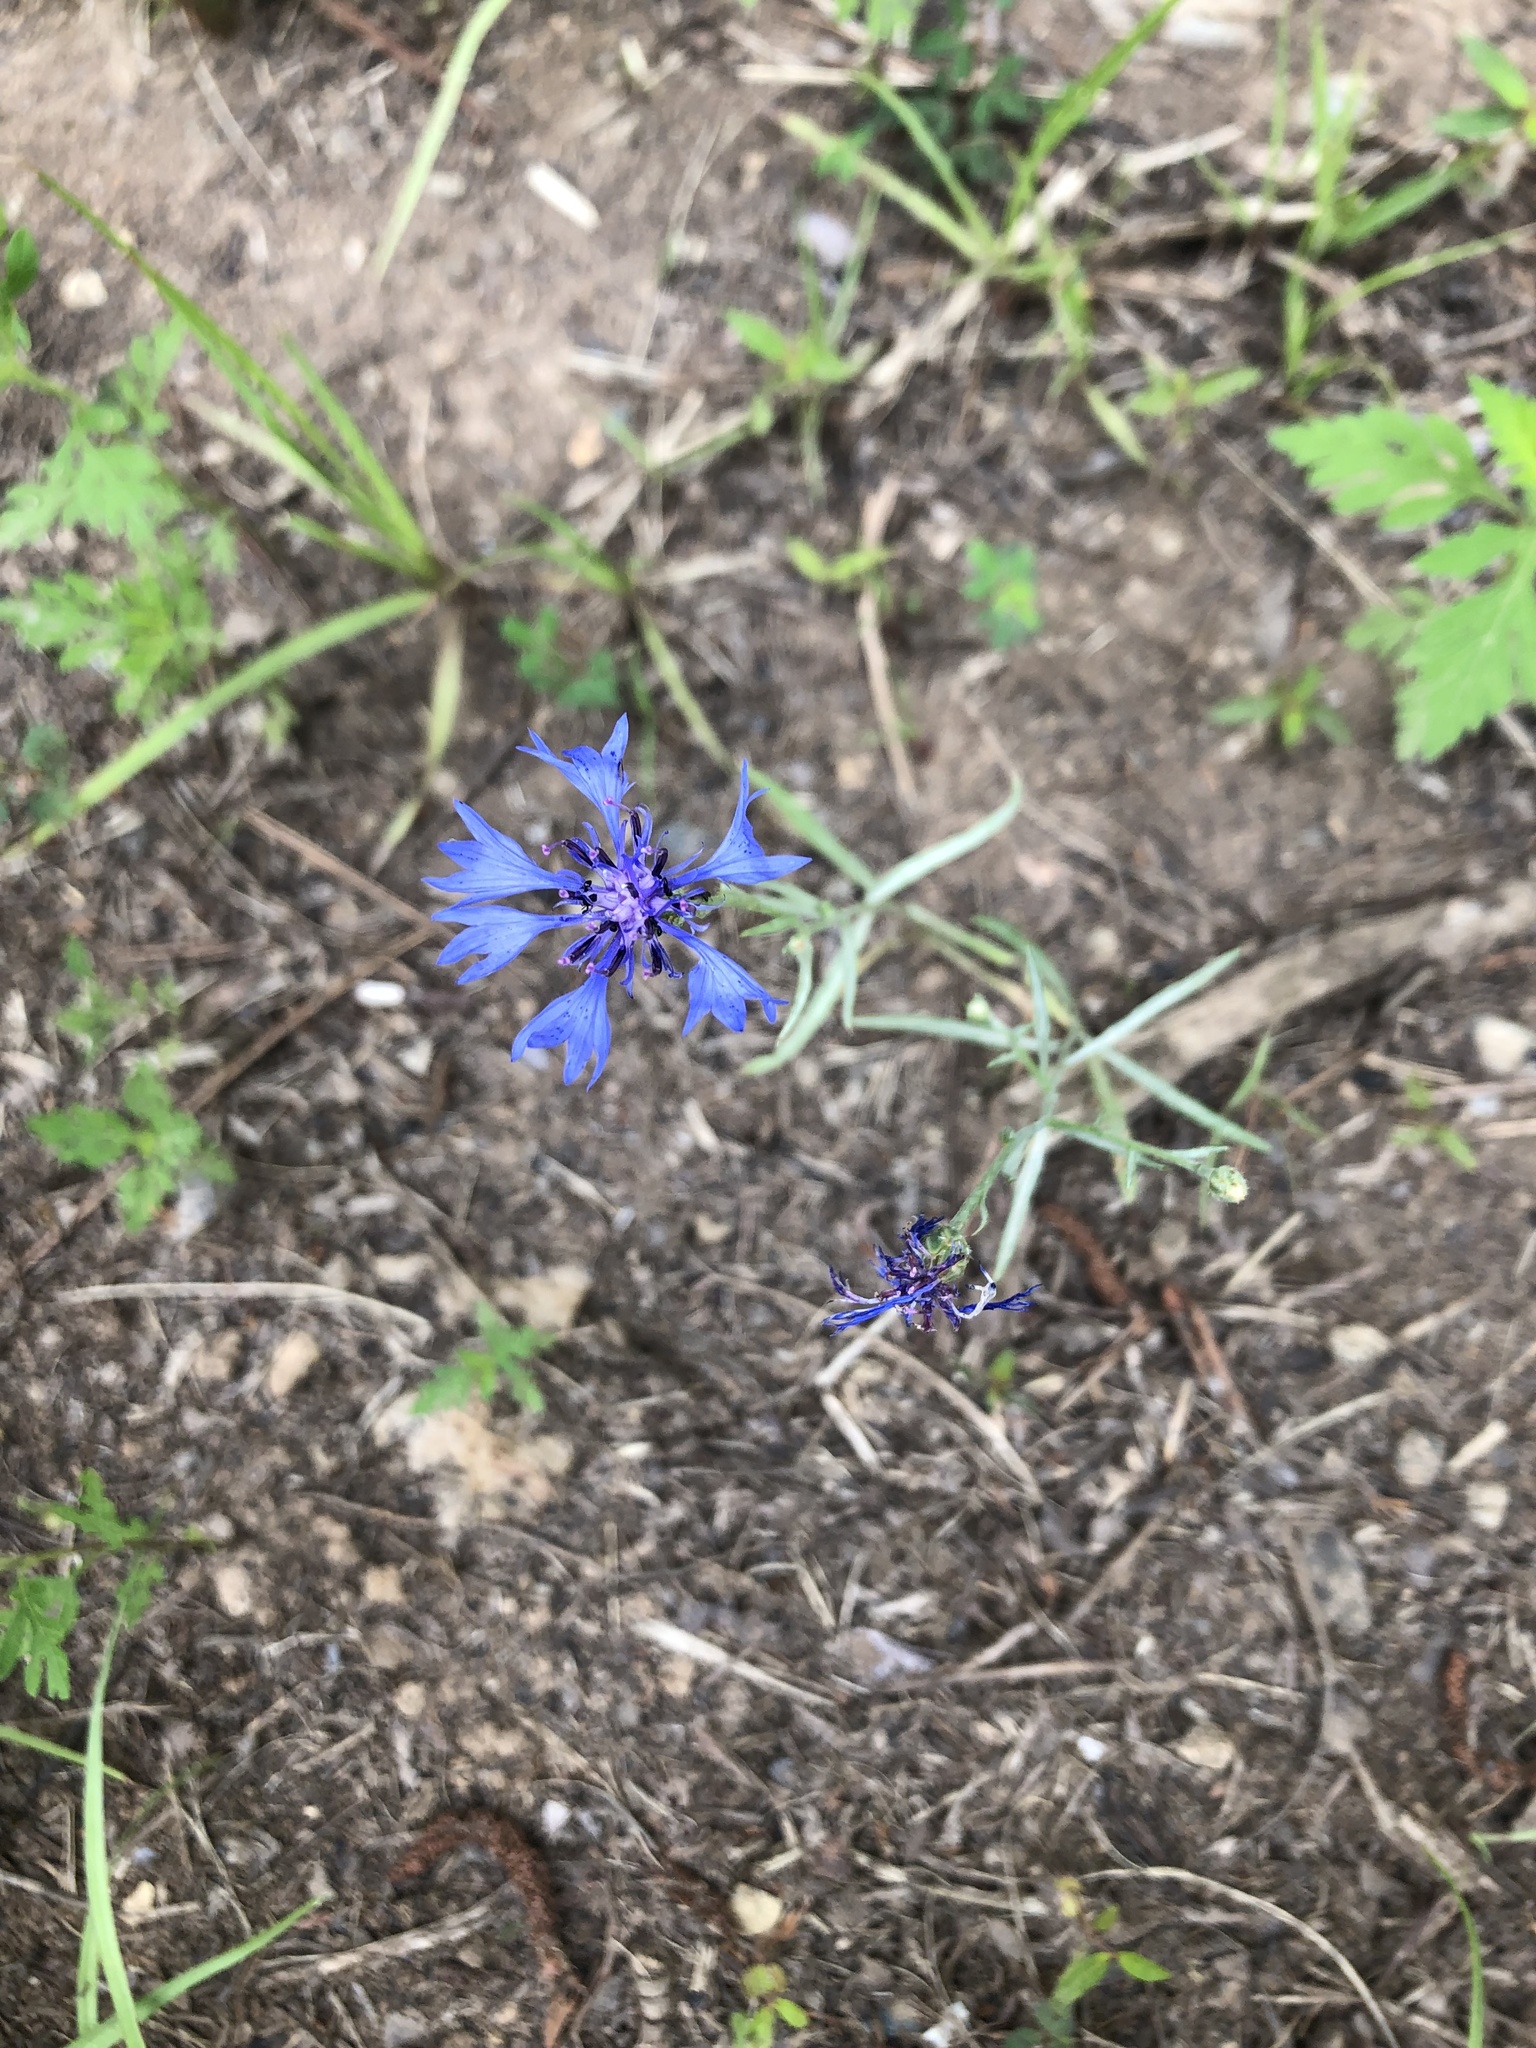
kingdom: Plantae
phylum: Tracheophyta
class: Magnoliopsida
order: Asterales
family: Asteraceae
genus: Centaurea
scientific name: Centaurea cyanus
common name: Cornflower
